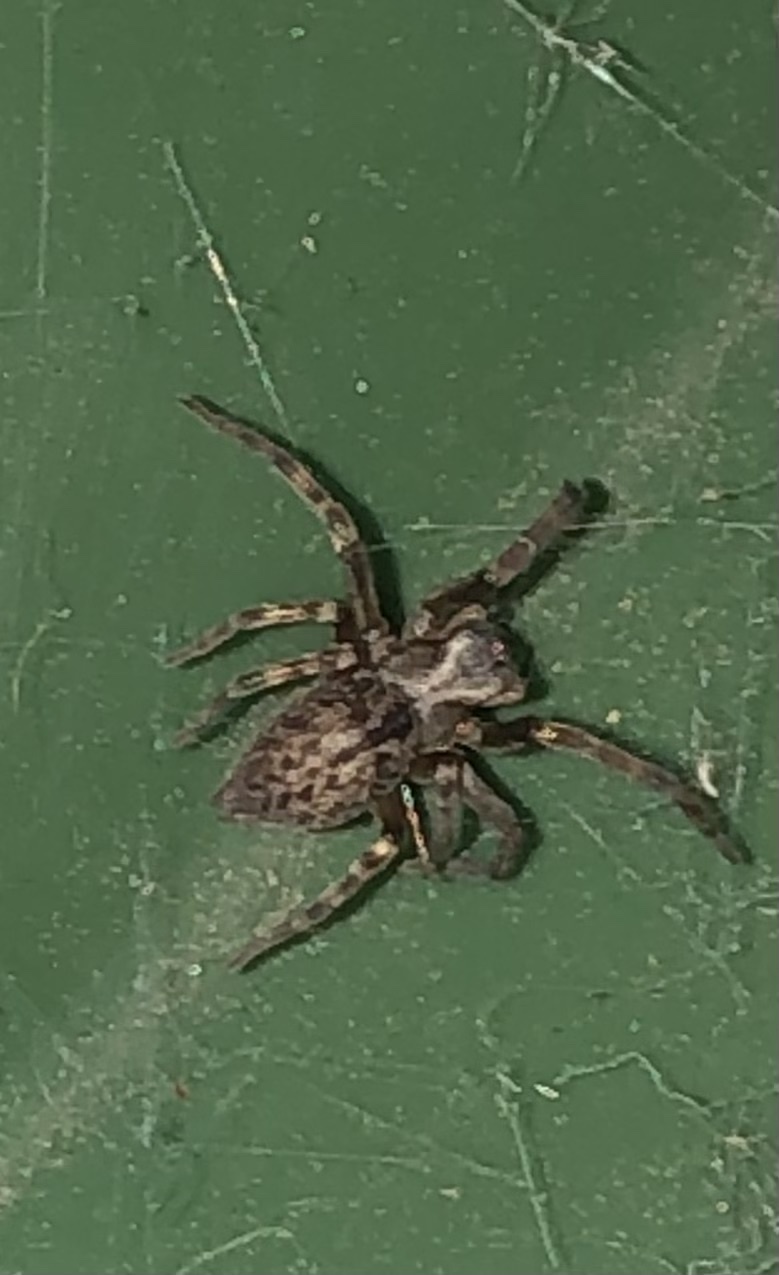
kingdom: Animalia
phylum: Arthropoda
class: Arachnida
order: Araneae
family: Desidae
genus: Badumna
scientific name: Badumna longinqua
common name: Gray house spider
